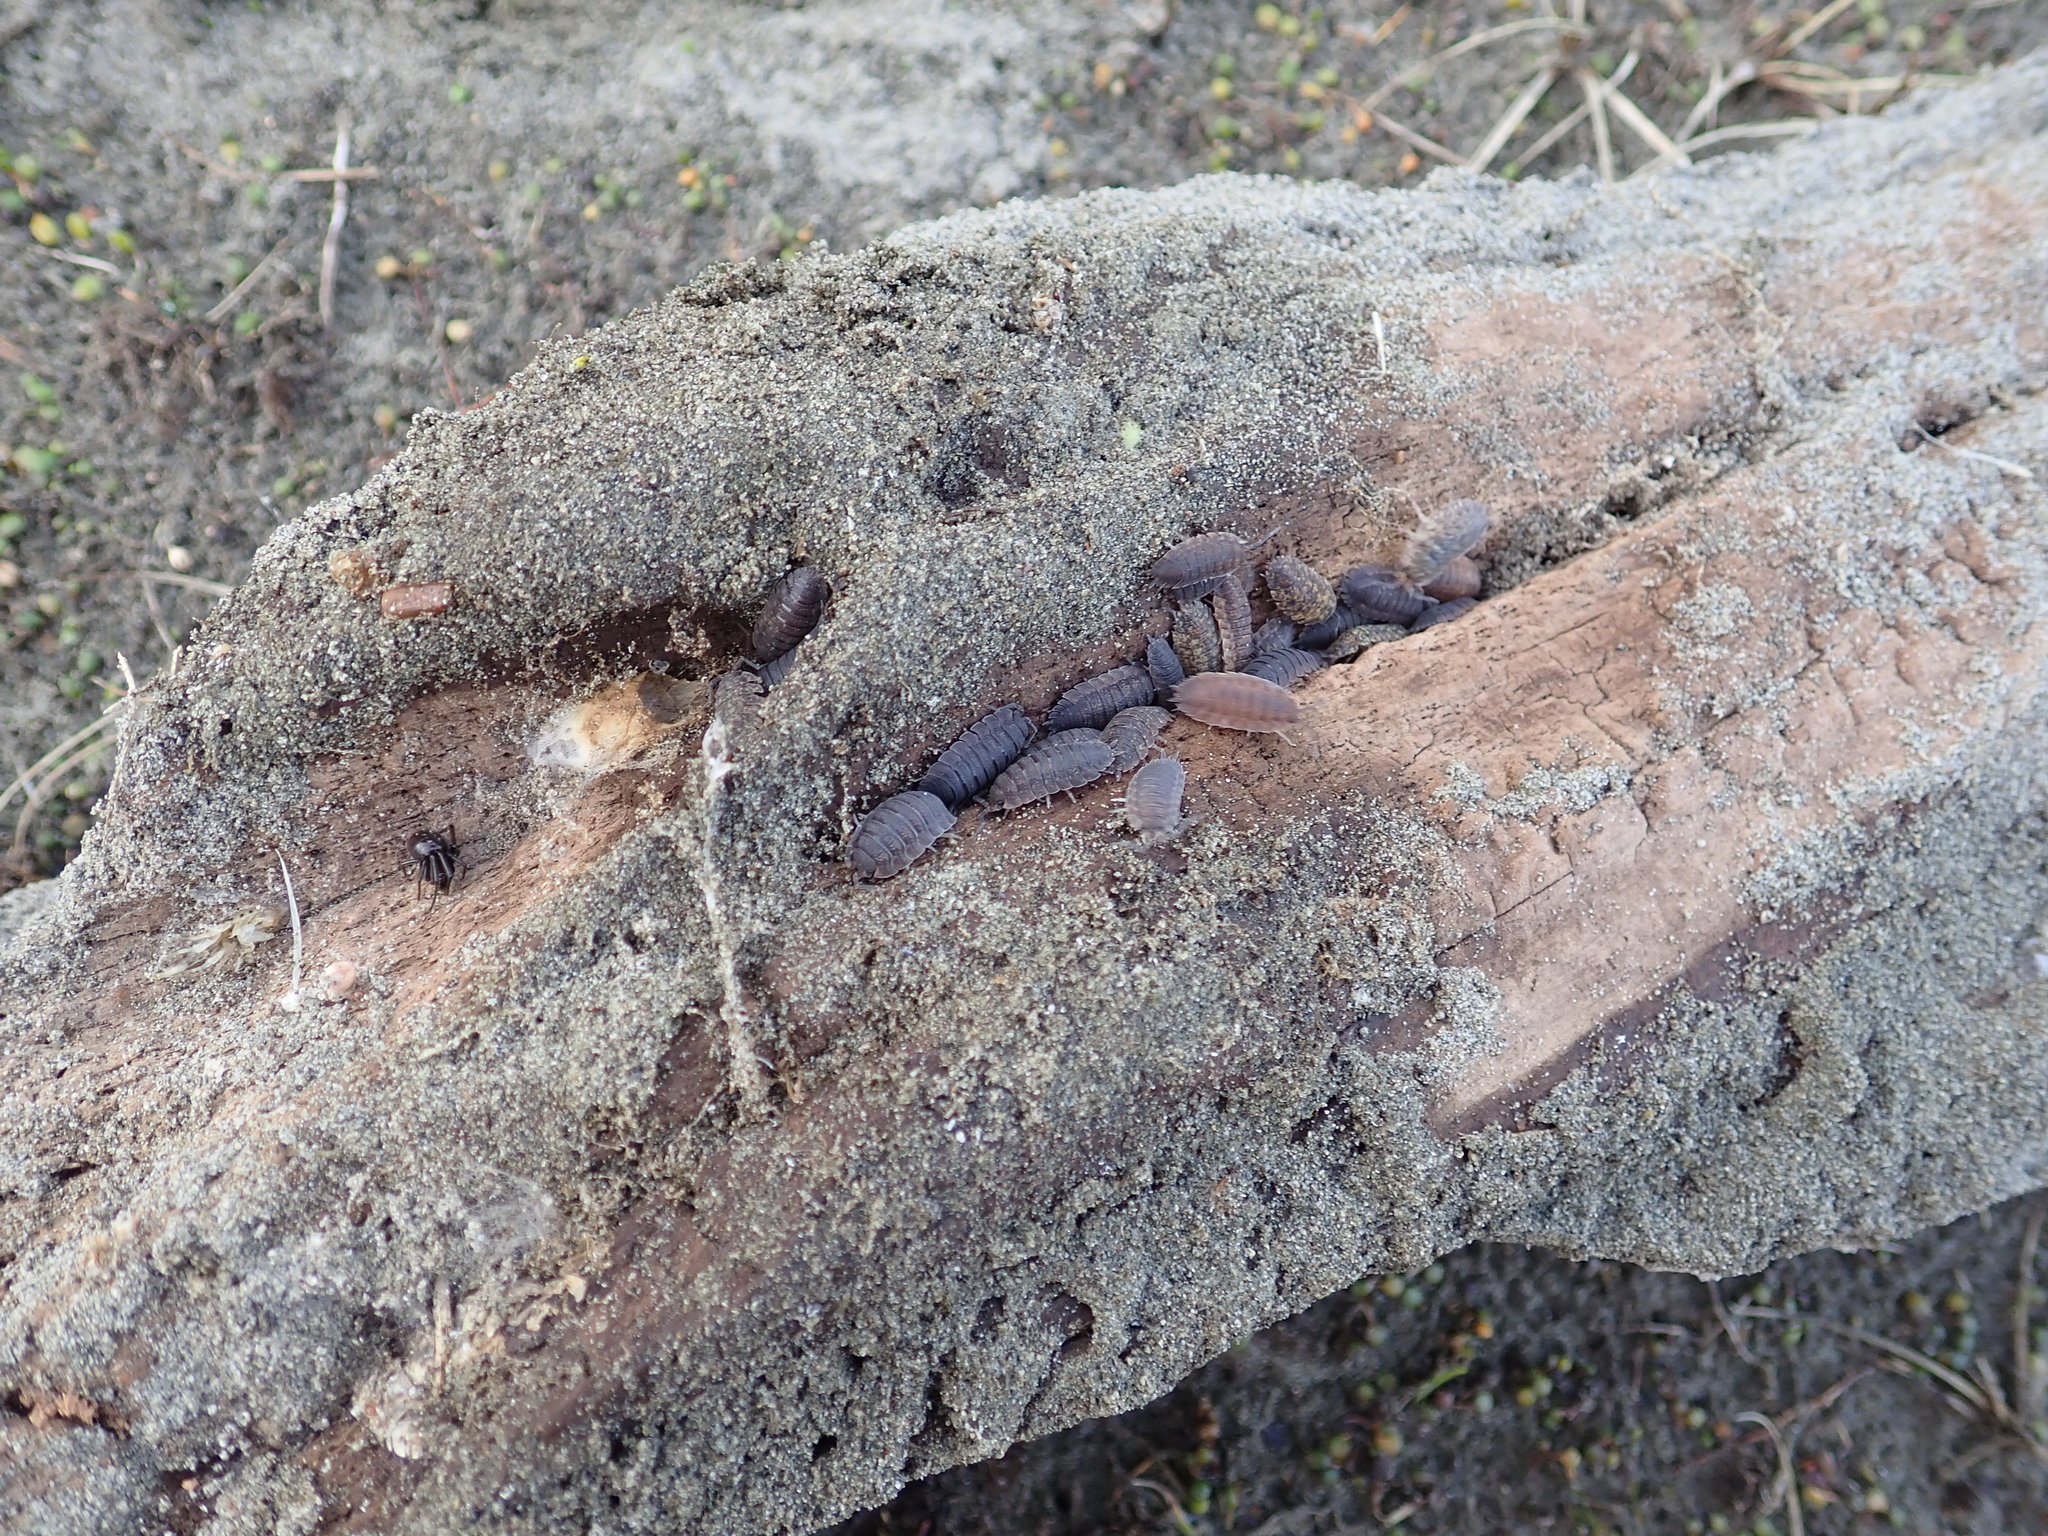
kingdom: Animalia
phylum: Arthropoda
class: Malacostraca
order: Isopoda
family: Porcellionidae
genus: Porcellio
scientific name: Porcellio scaber
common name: Common rough woodlouse
